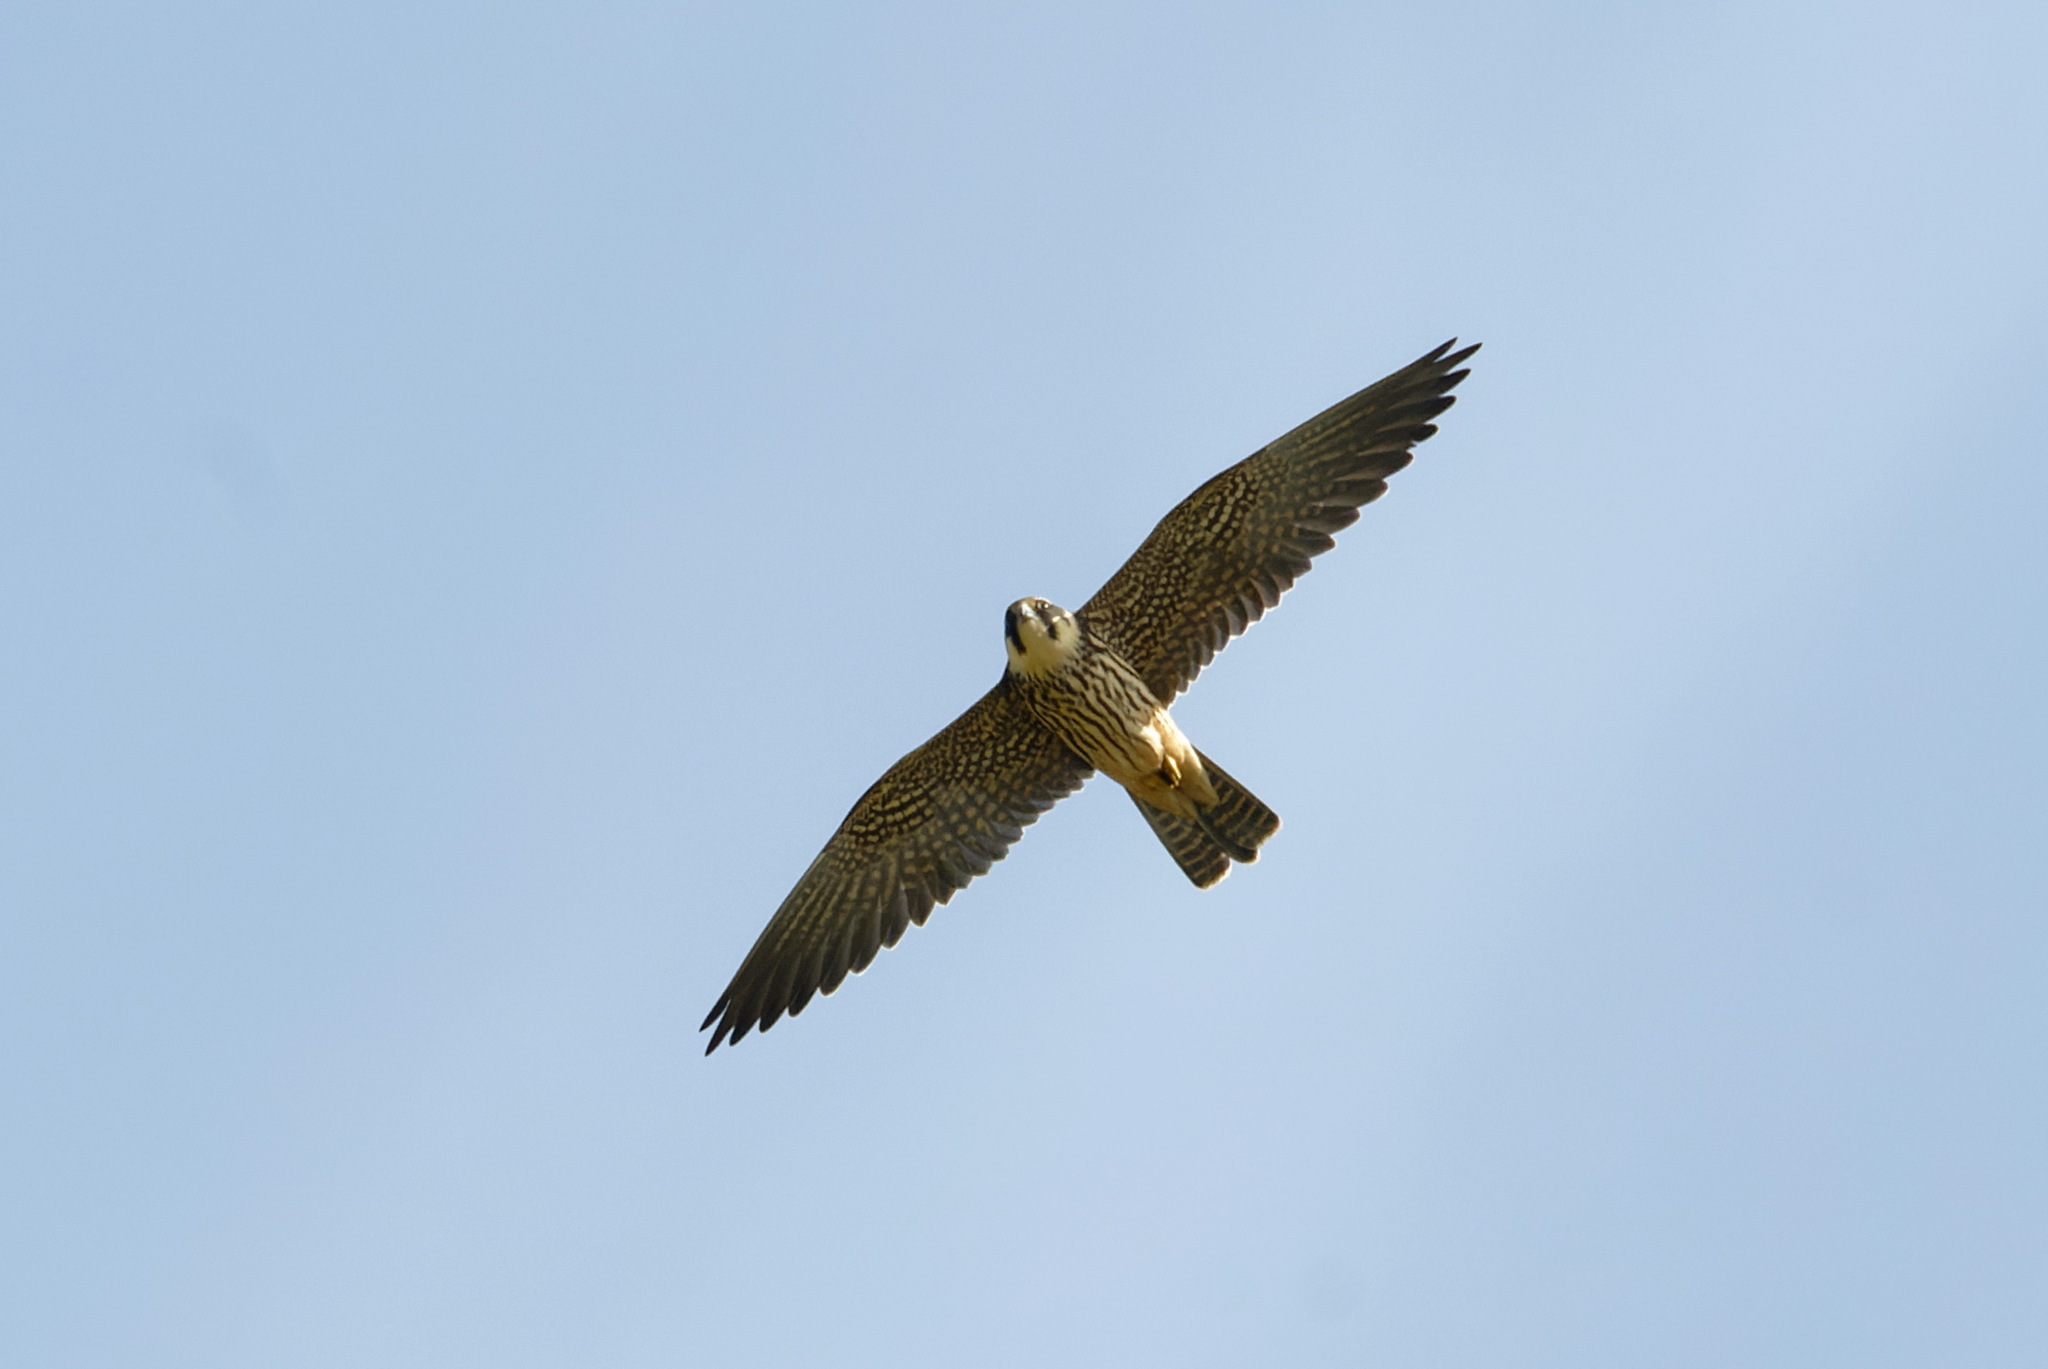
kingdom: Animalia
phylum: Chordata
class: Aves
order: Falconiformes
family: Falconidae
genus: Falco
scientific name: Falco subbuteo
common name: Eurasian hobby
